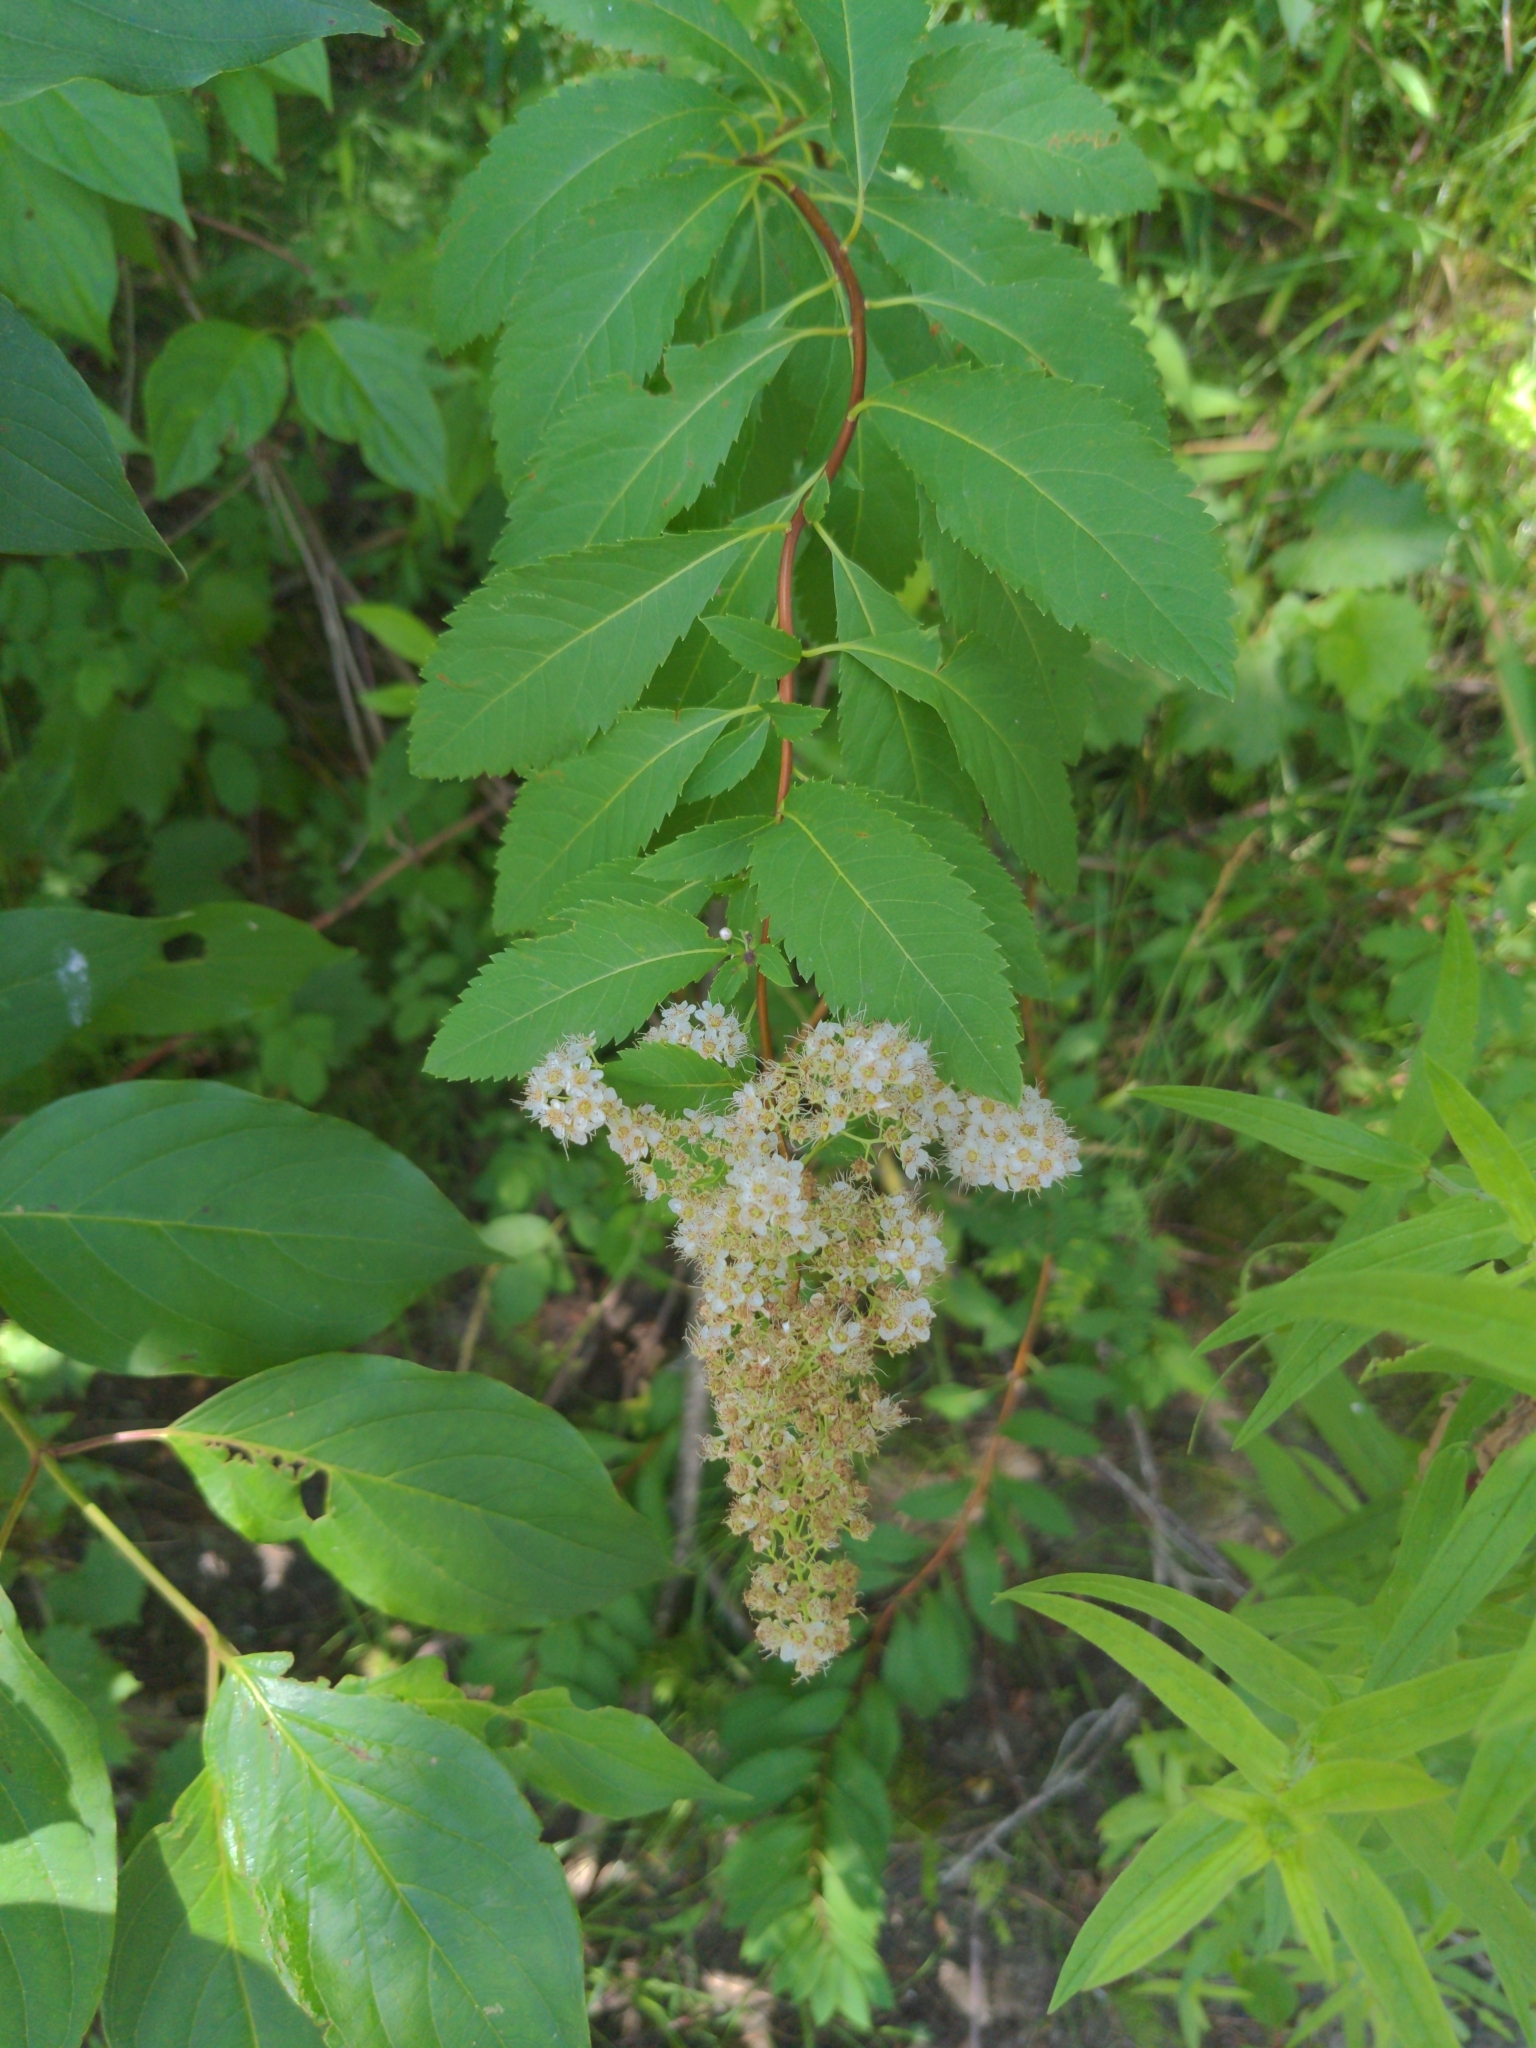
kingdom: Plantae
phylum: Tracheophyta
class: Magnoliopsida
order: Rosales
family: Rosaceae
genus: Spiraea
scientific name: Spiraea alba
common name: Pale bridewort
